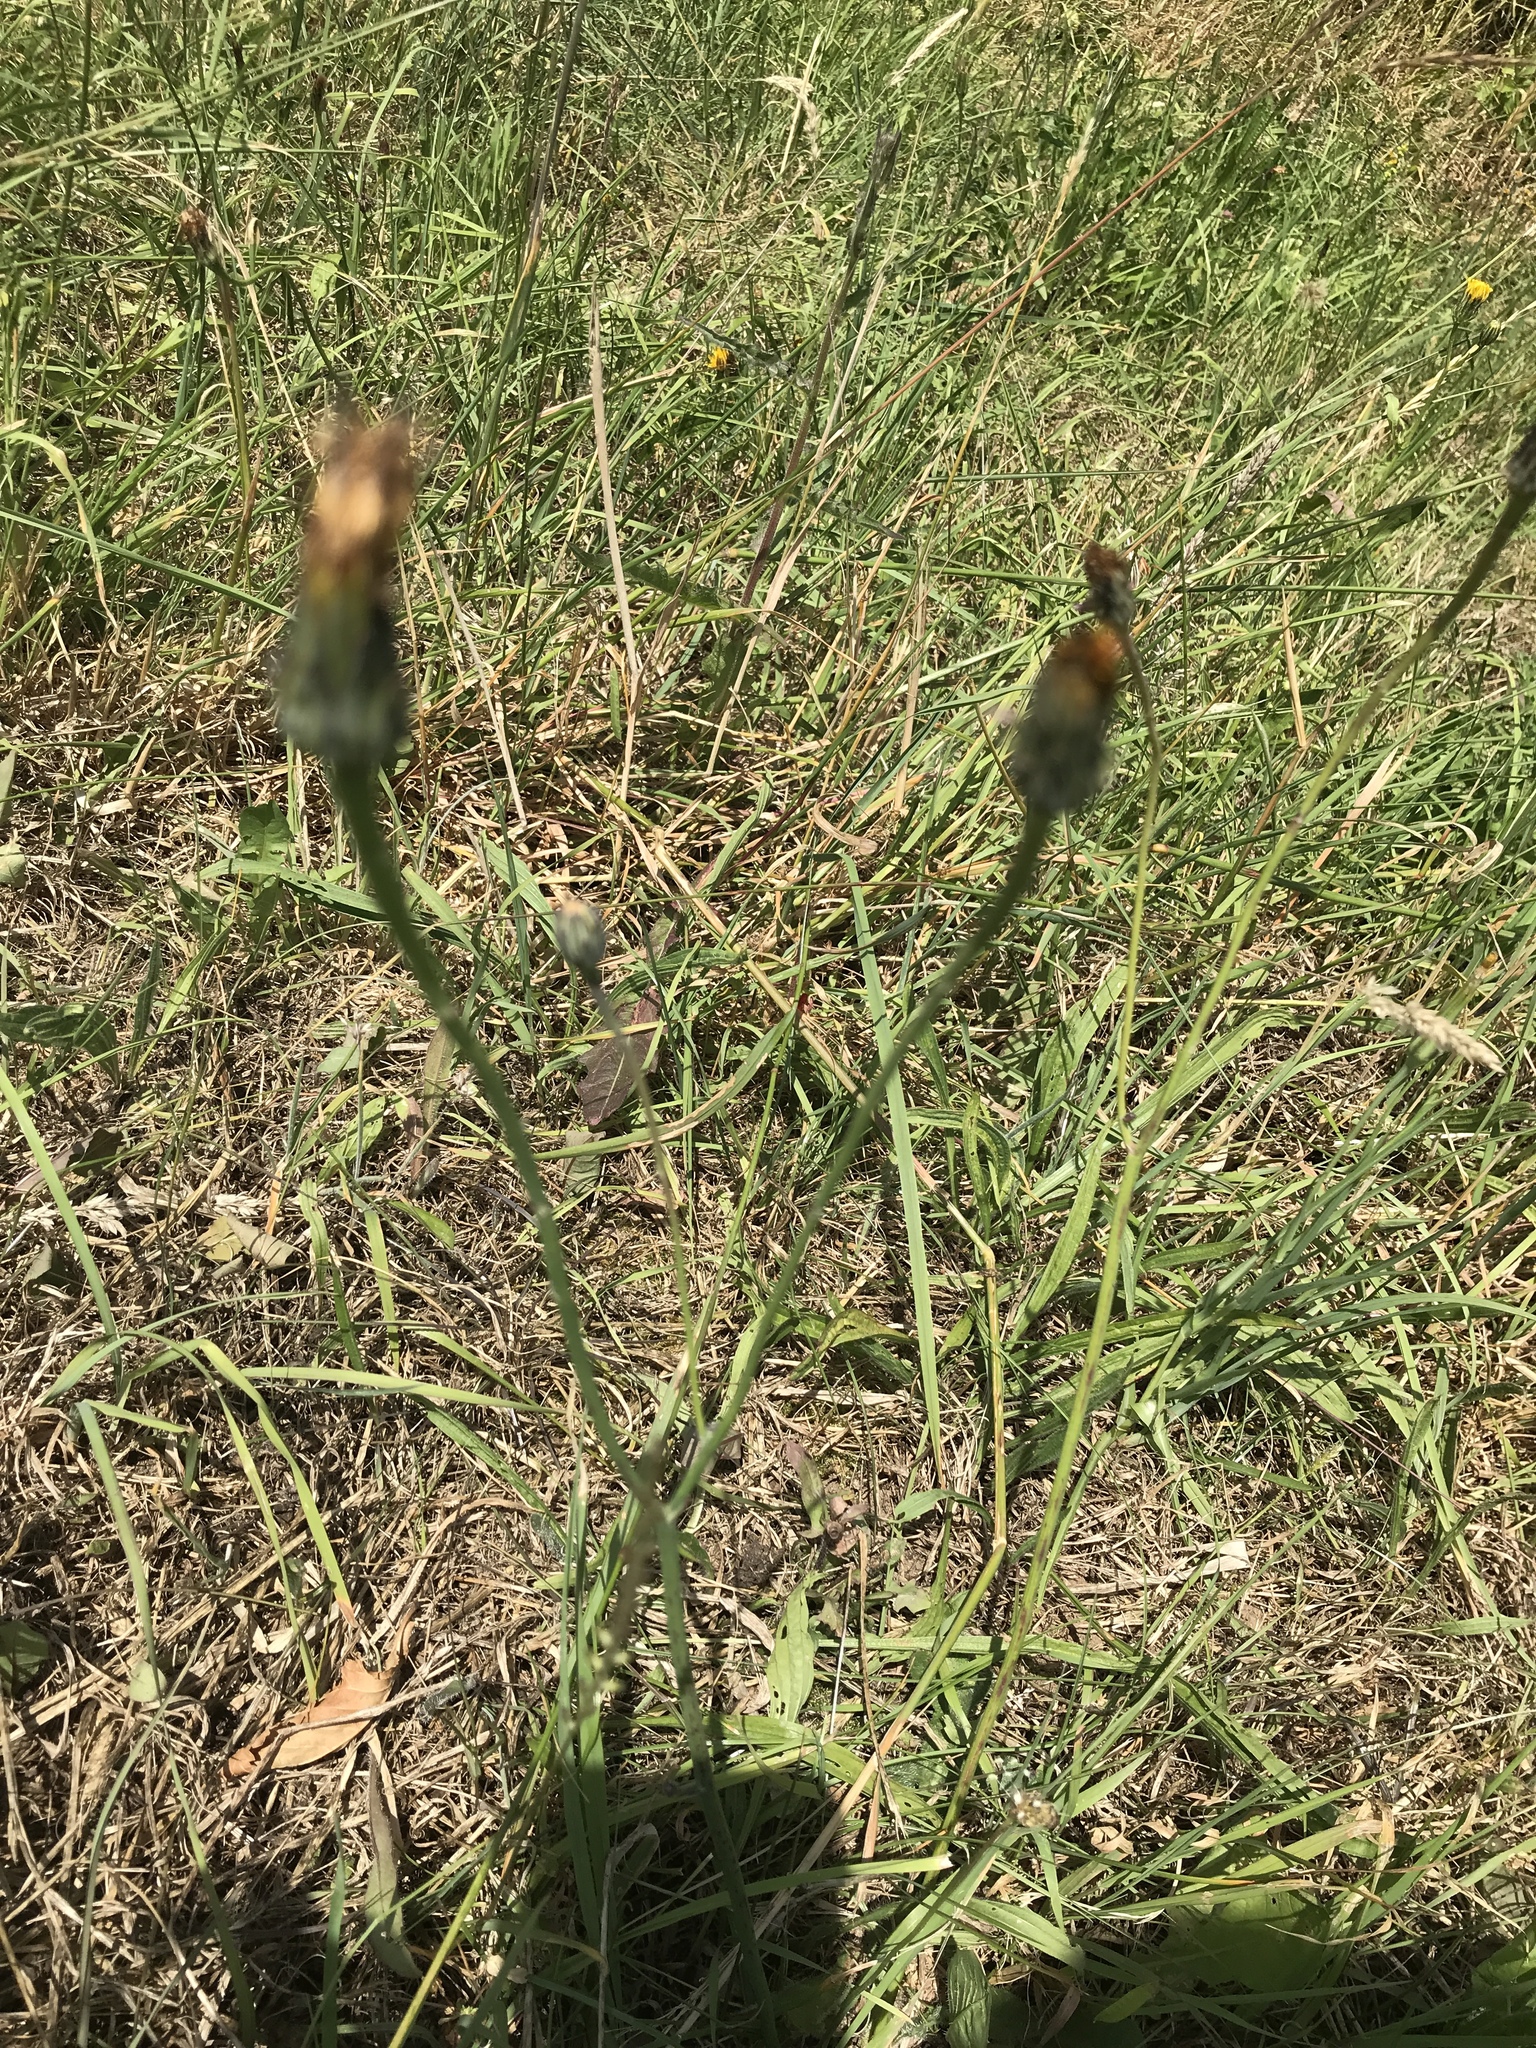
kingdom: Plantae
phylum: Tracheophyta
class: Magnoliopsida
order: Asterales
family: Asteraceae
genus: Hypochaeris
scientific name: Hypochaeris radicata
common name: Flatweed
